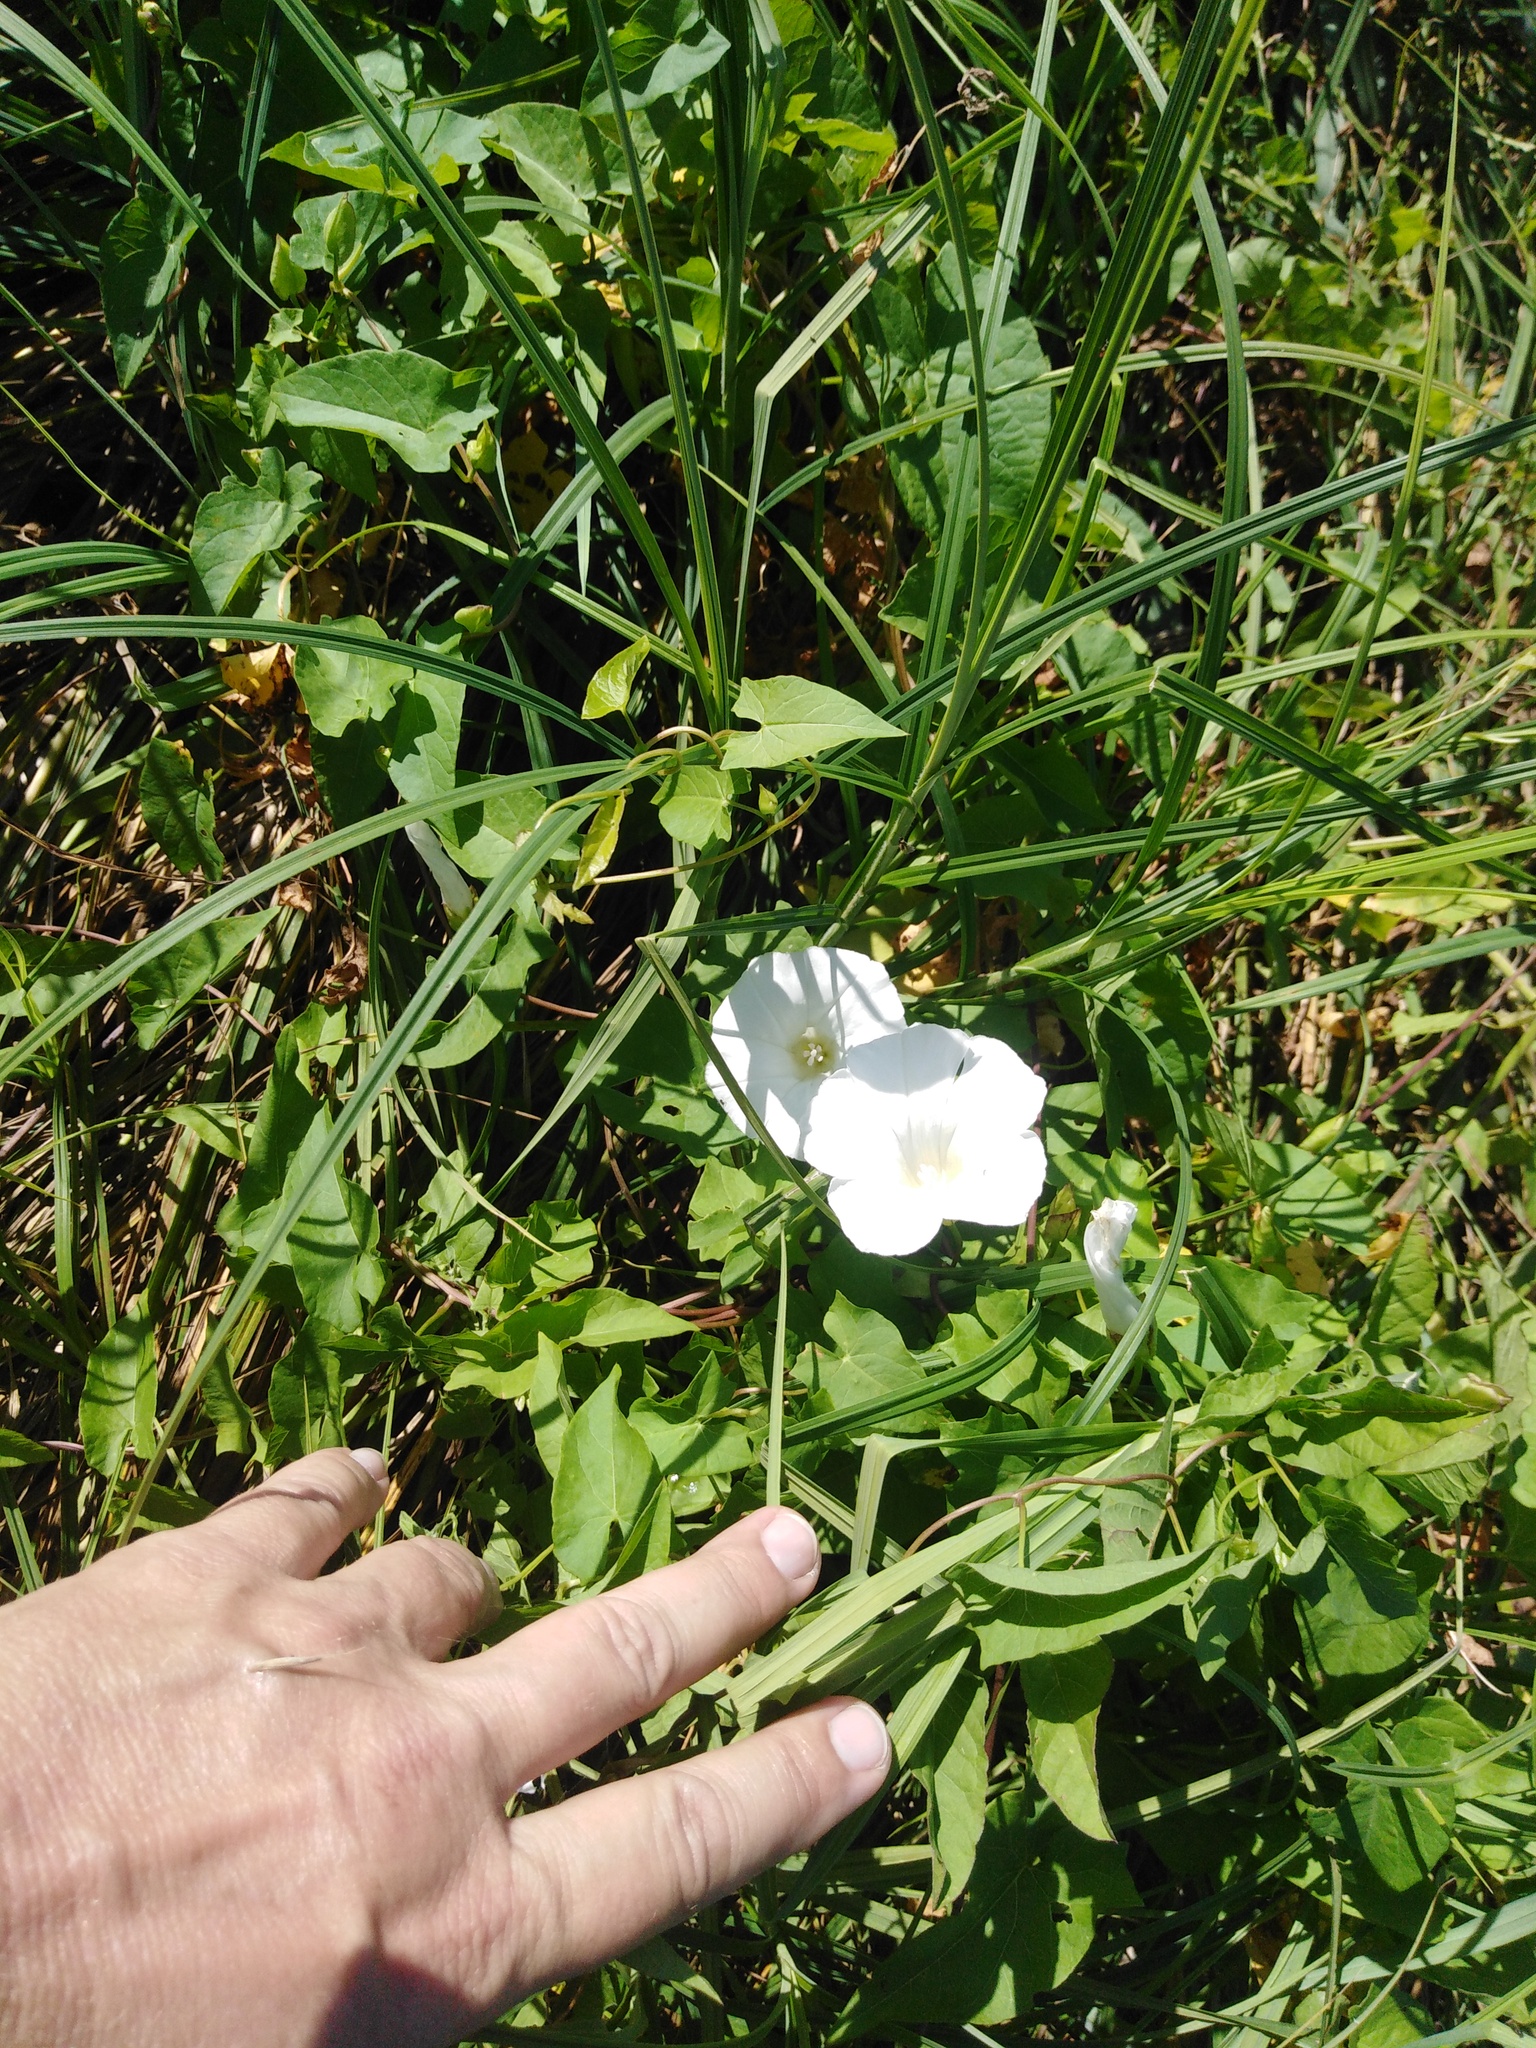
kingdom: Plantae
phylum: Tracheophyta
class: Magnoliopsida
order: Solanales
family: Convolvulaceae
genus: Convolvulus
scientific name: Convolvulus arvensis
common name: Field bindweed
